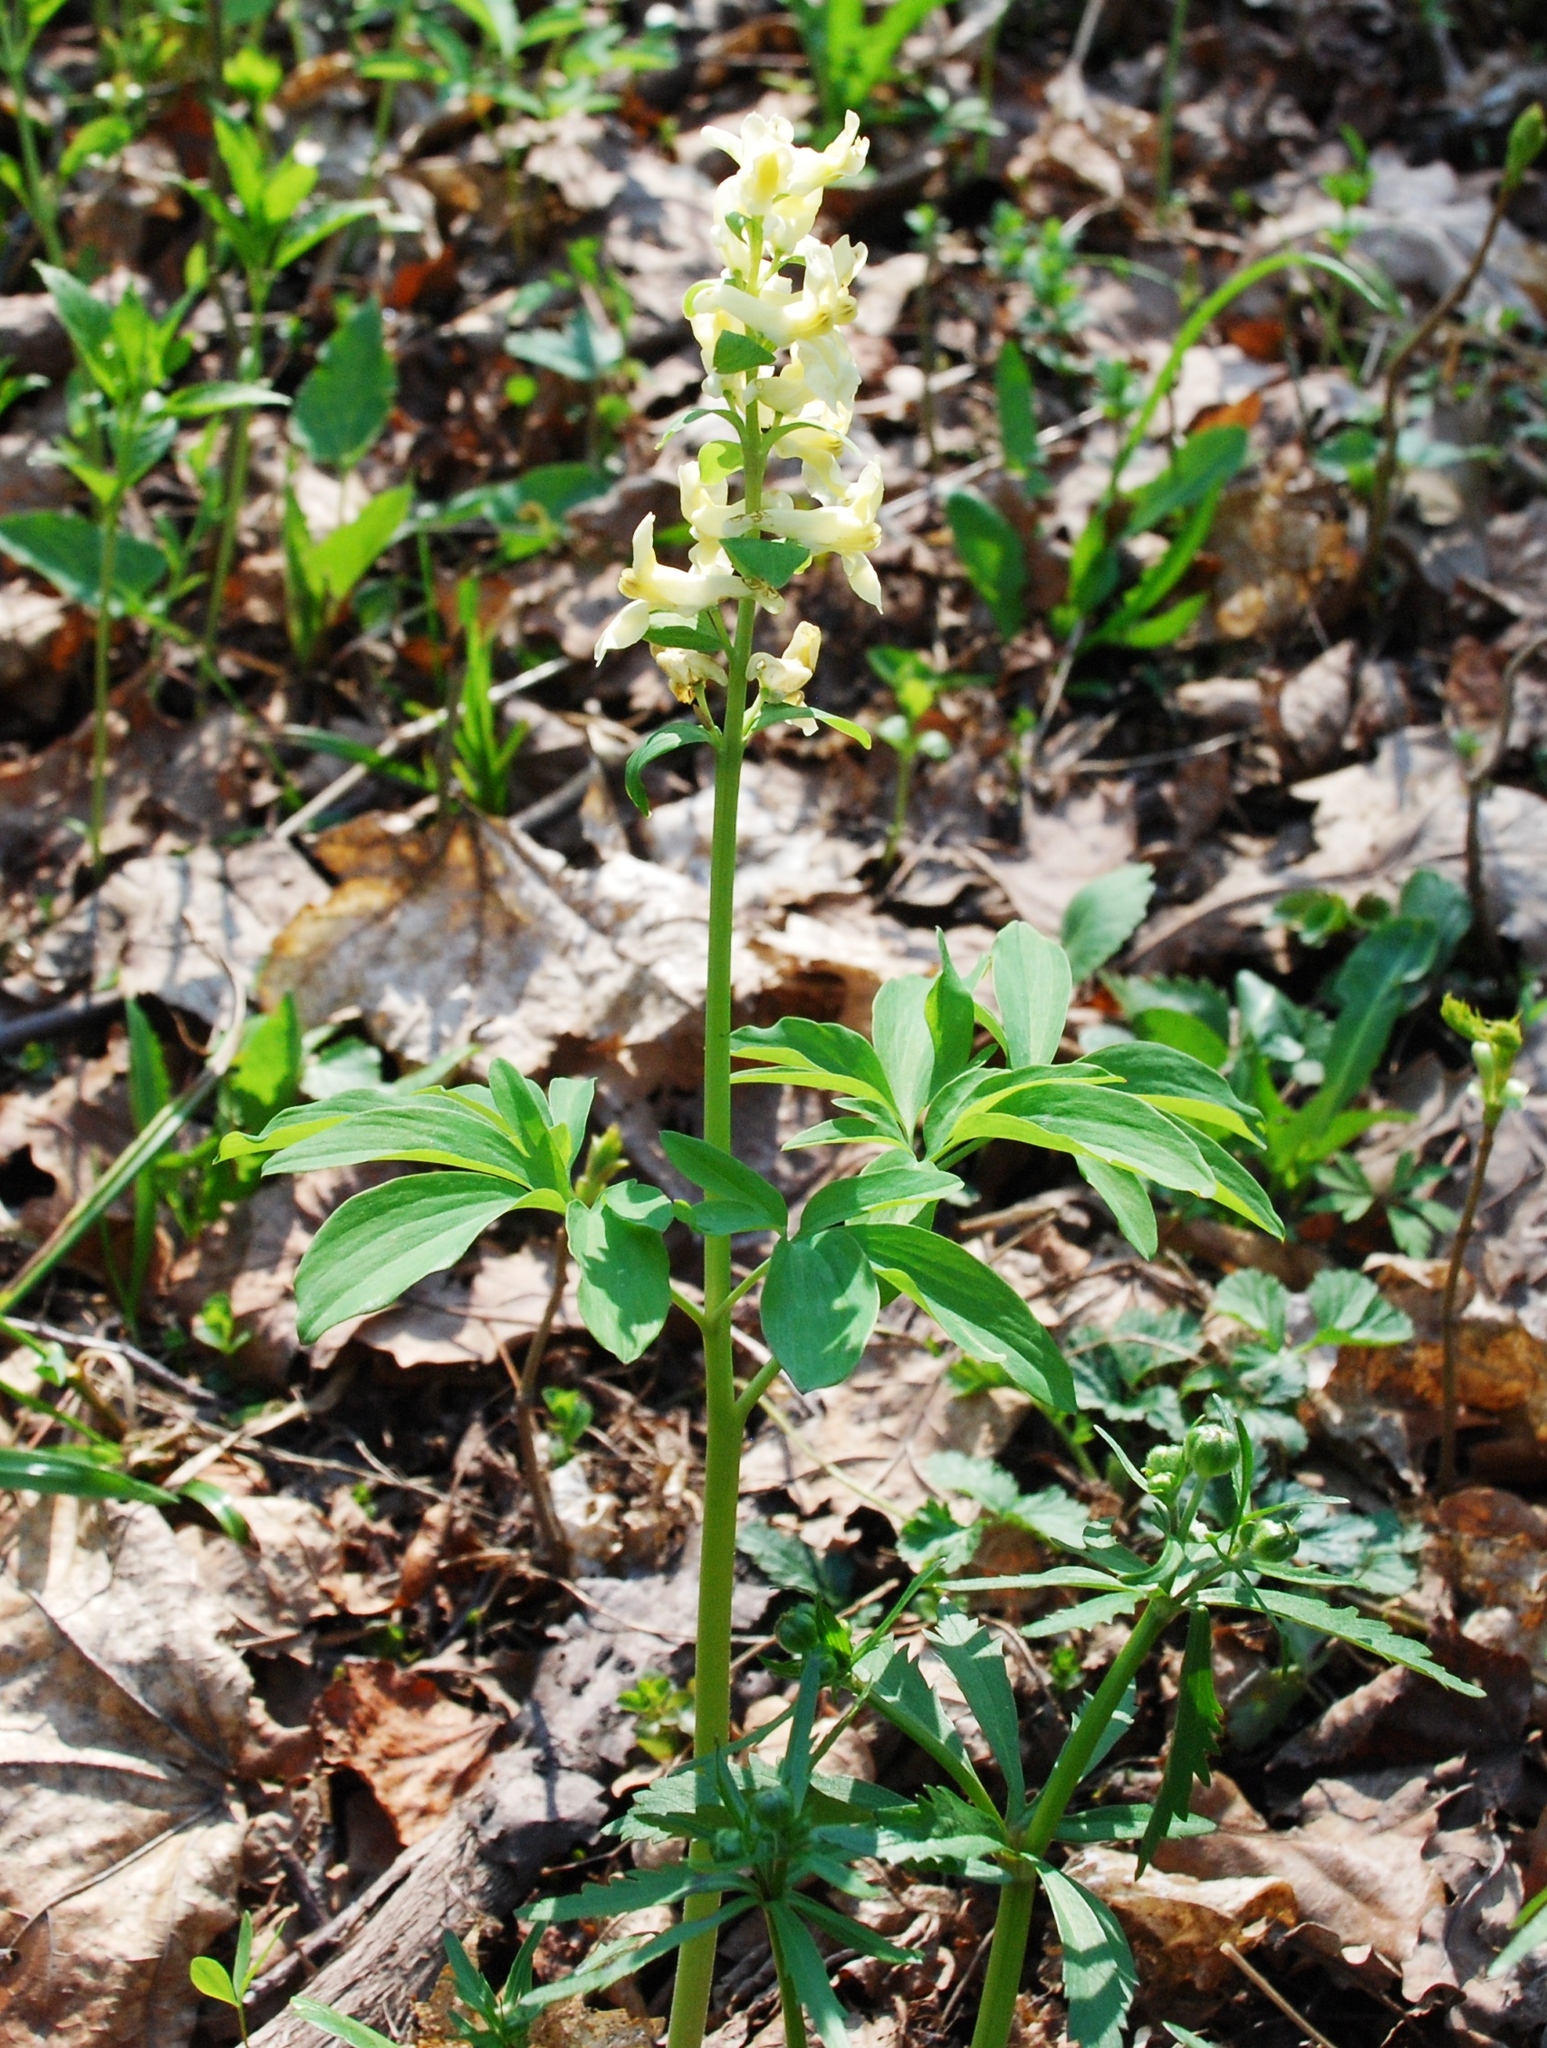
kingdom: Plantae
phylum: Tracheophyta
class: Magnoliopsida
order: Ranunculales
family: Papaveraceae
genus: Corydalis
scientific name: Corydalis cava
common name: Hollowroot
